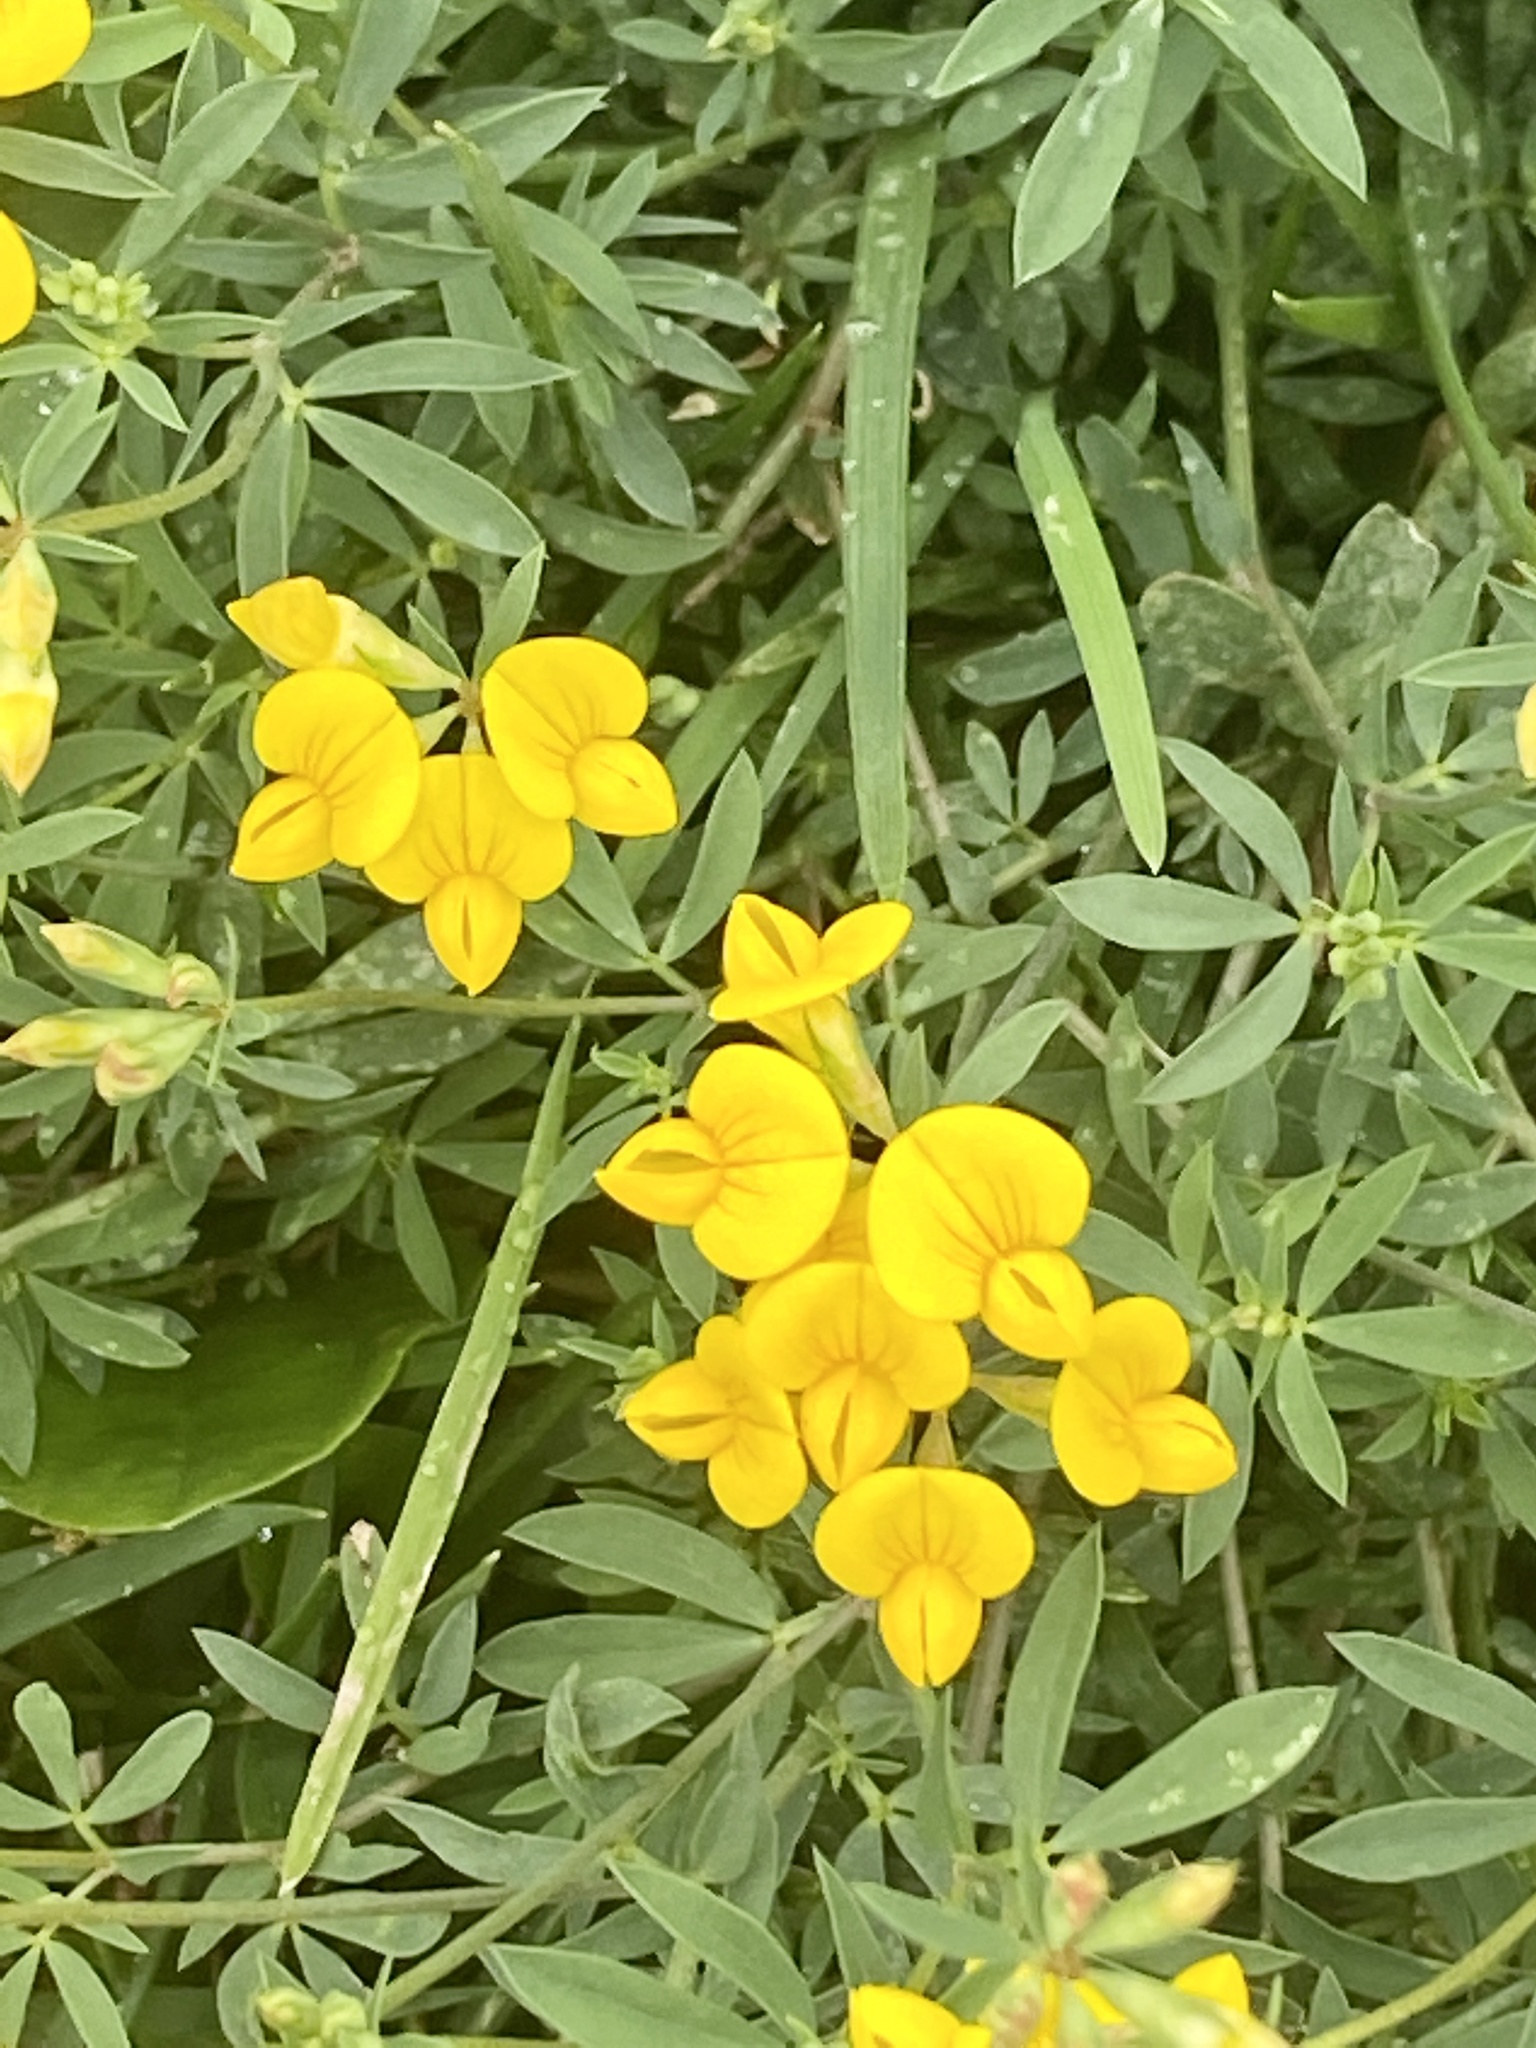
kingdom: Plantae
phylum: Tracheophyta
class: Magnoliopsida
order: Fabales
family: Fabaceae
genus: Lotus
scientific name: Lotus tenuis
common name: Narrow-leaved bird's-foot-trefoil
